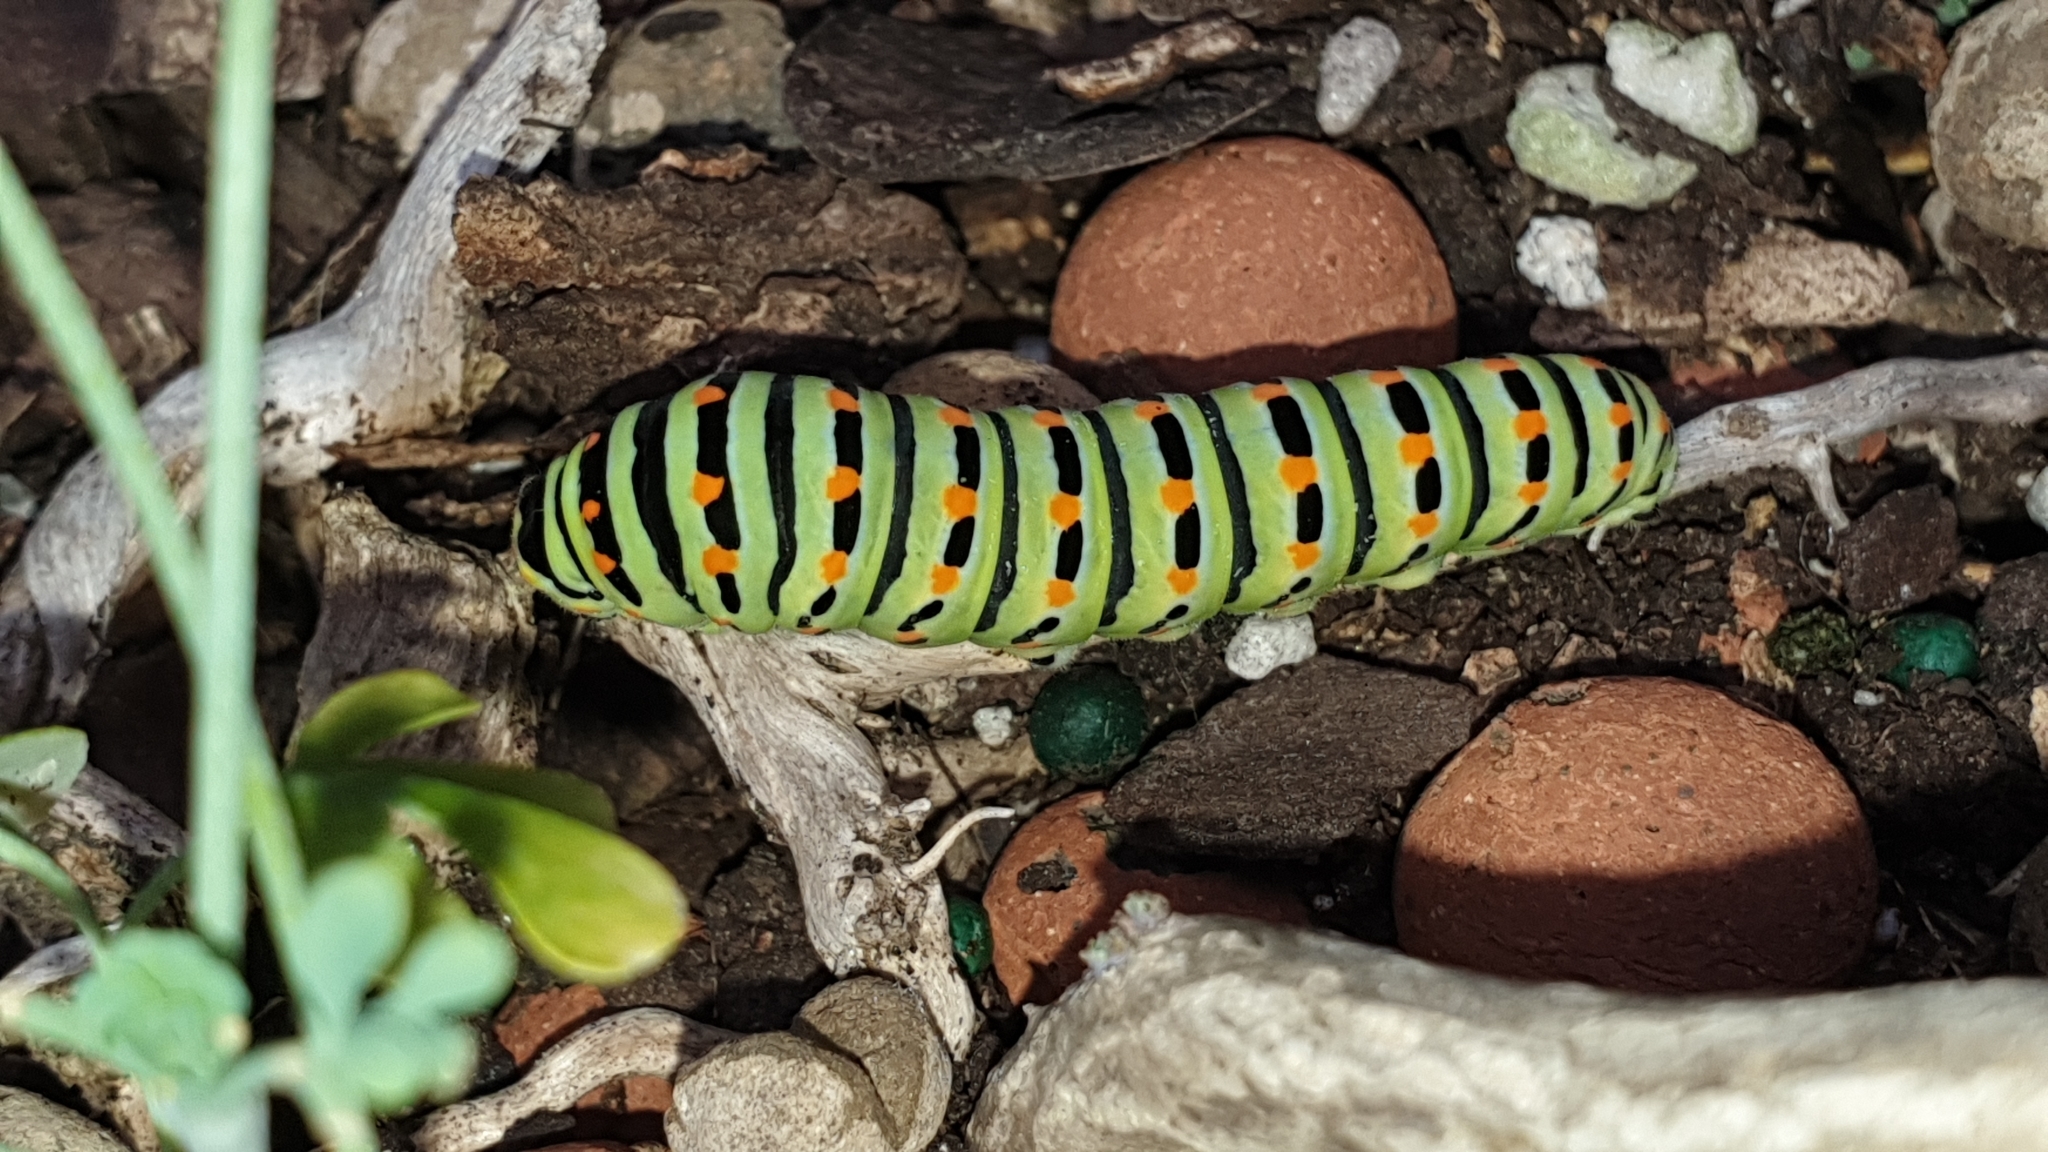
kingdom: Animalia
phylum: Arthropoda
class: Insecta
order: Lepidoptera
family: Papilionidae
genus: Papilio
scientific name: Papilio machaon
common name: Swallowtail
